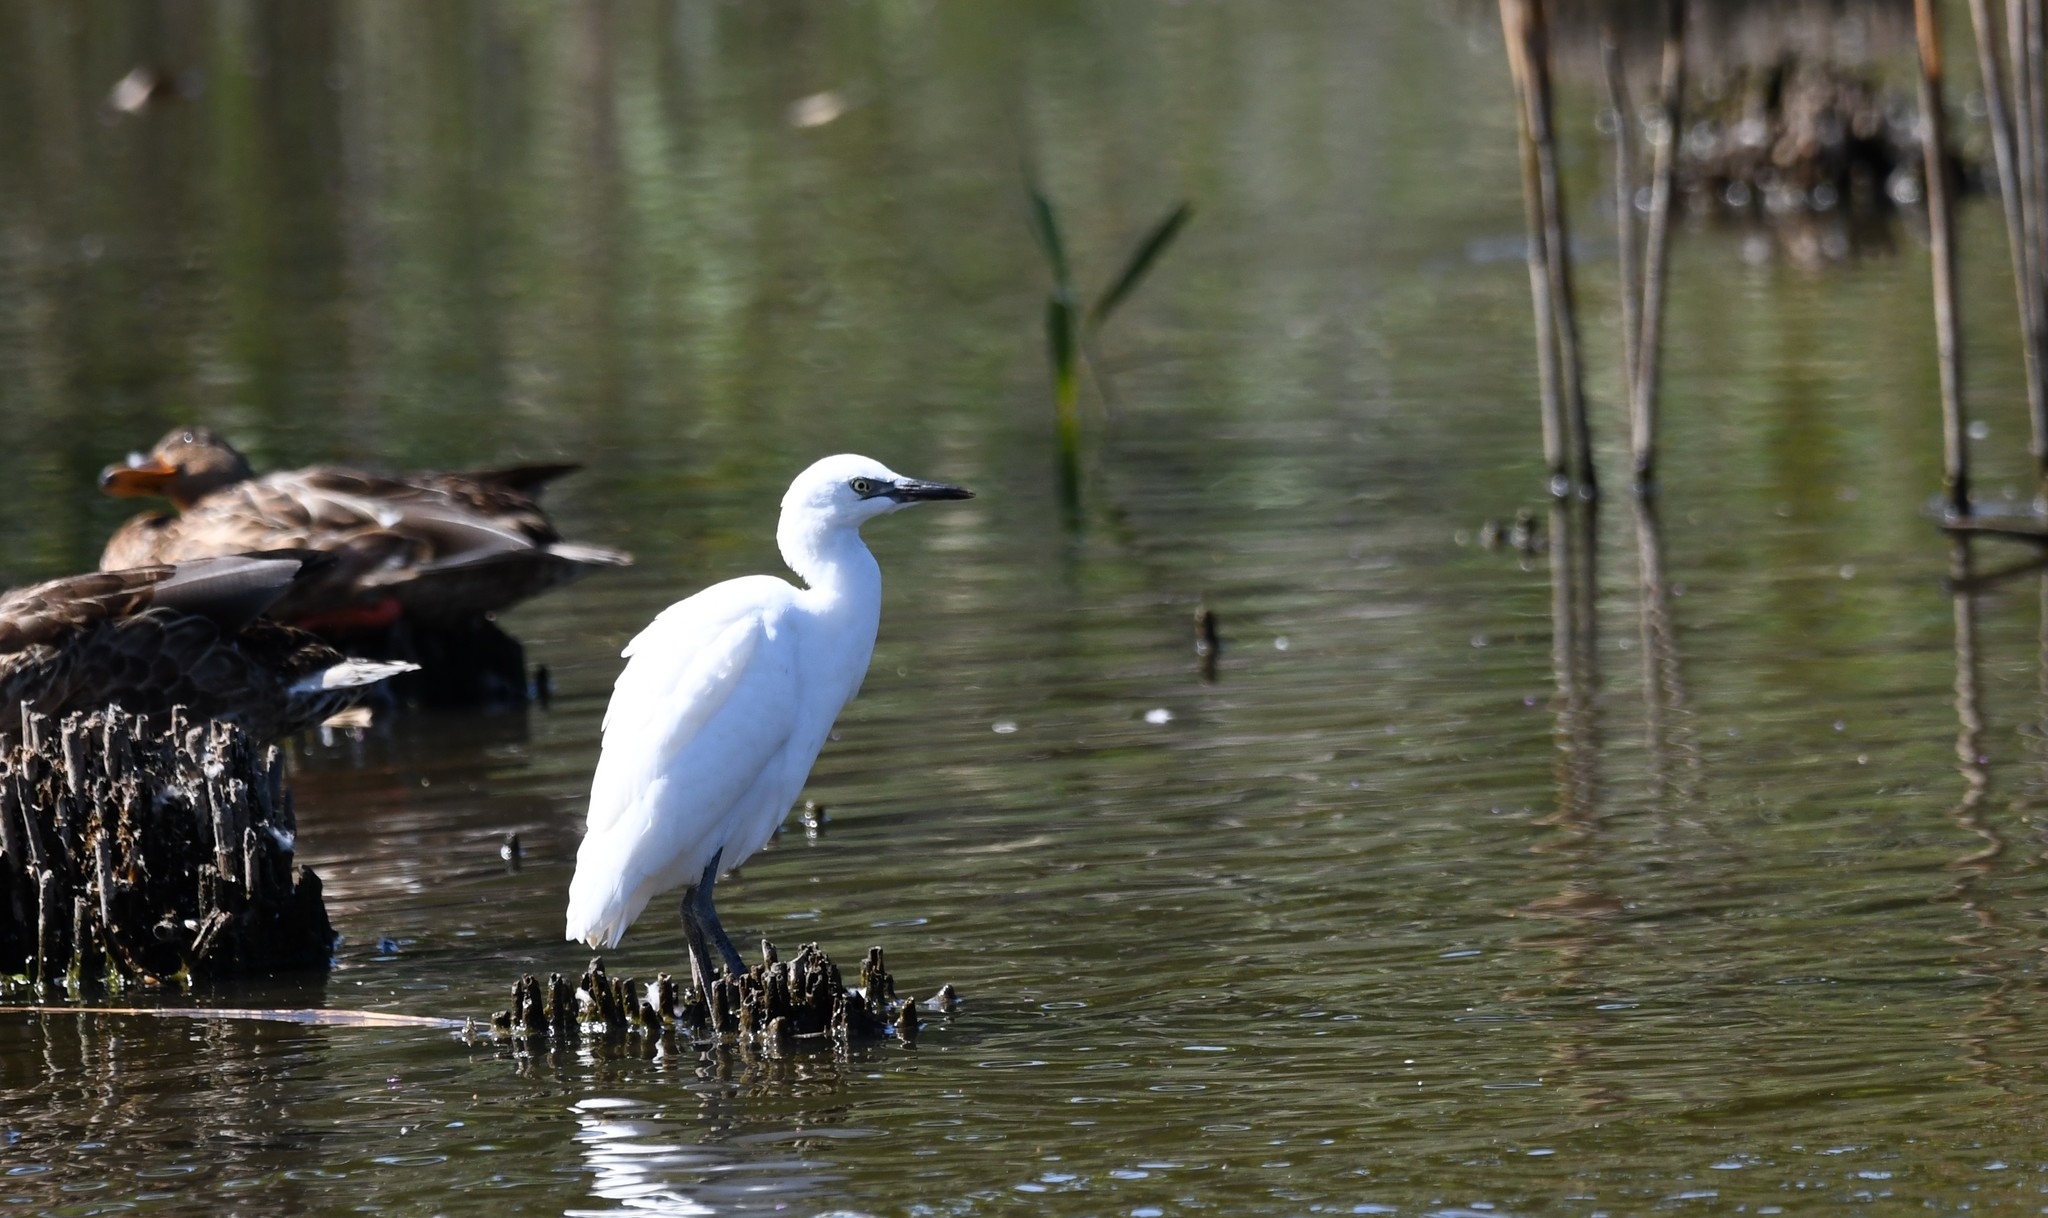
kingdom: Animalia
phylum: Chordata
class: Aves
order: Pelecaniformes
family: Ardeidae
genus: Egretta
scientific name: Egretta garzetta
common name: Little egret
